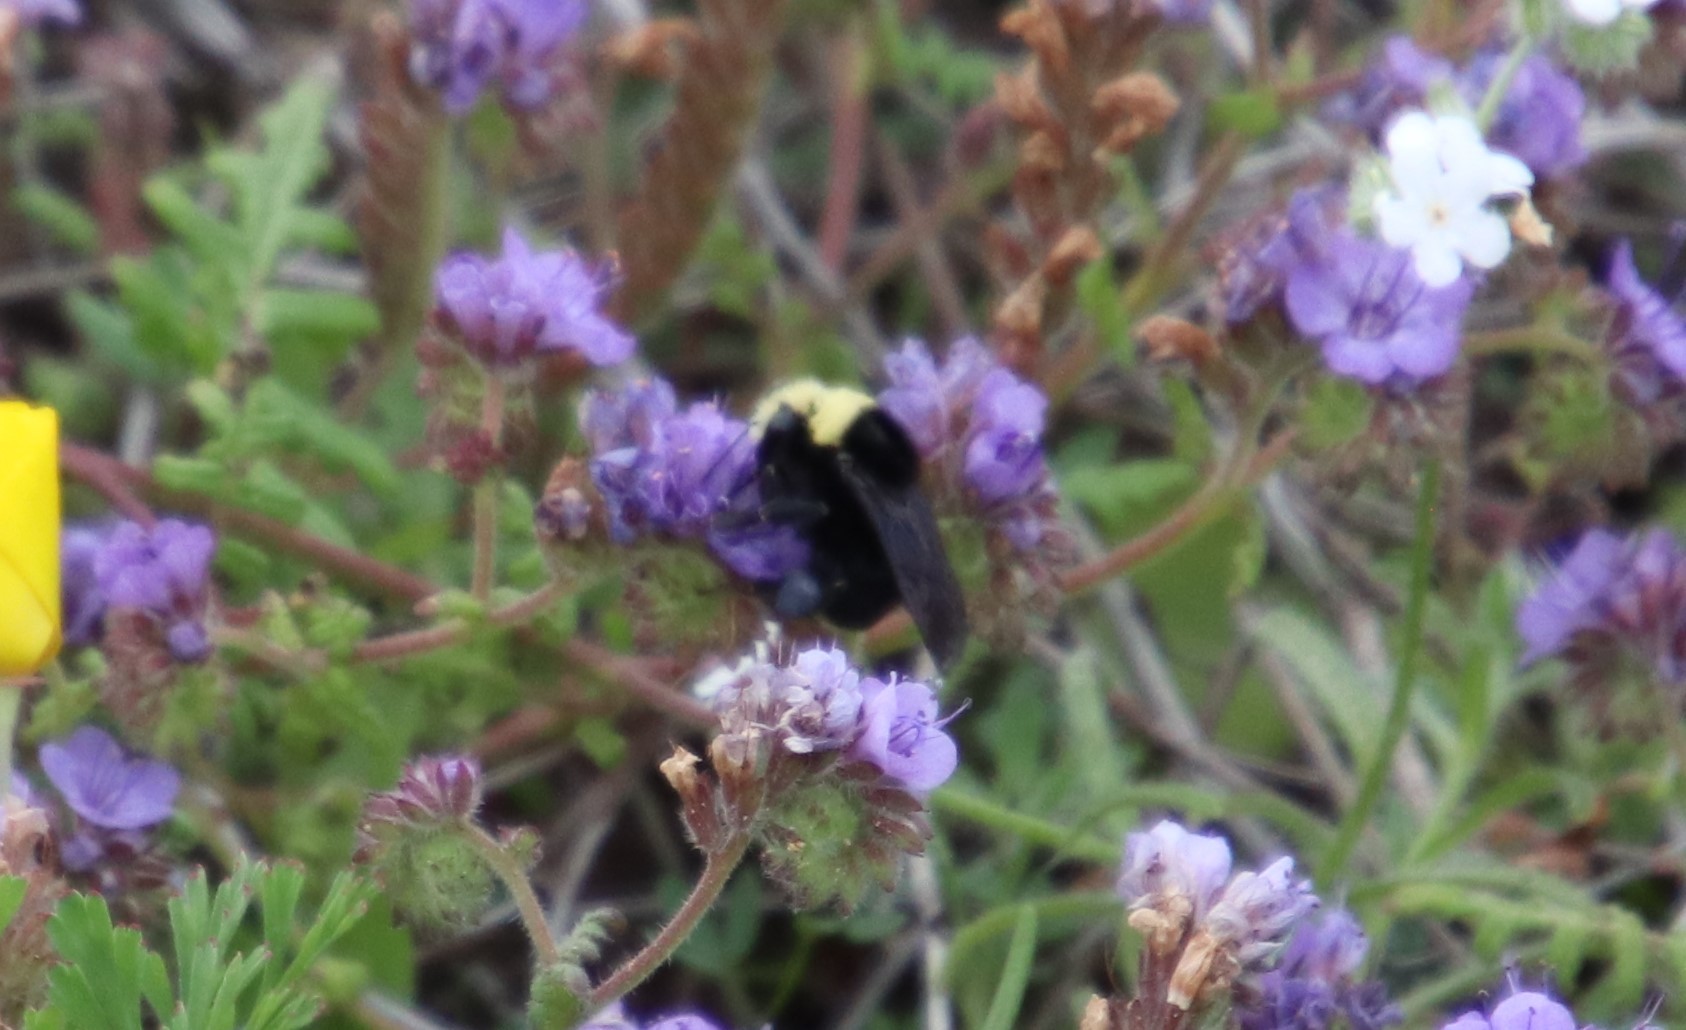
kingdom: Animalia
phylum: Arthropoda
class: Insecta
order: Hymenoptera
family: Apidae
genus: Bombus
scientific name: Bombus vosnesenskii
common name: Vosnesensky bumble bee
